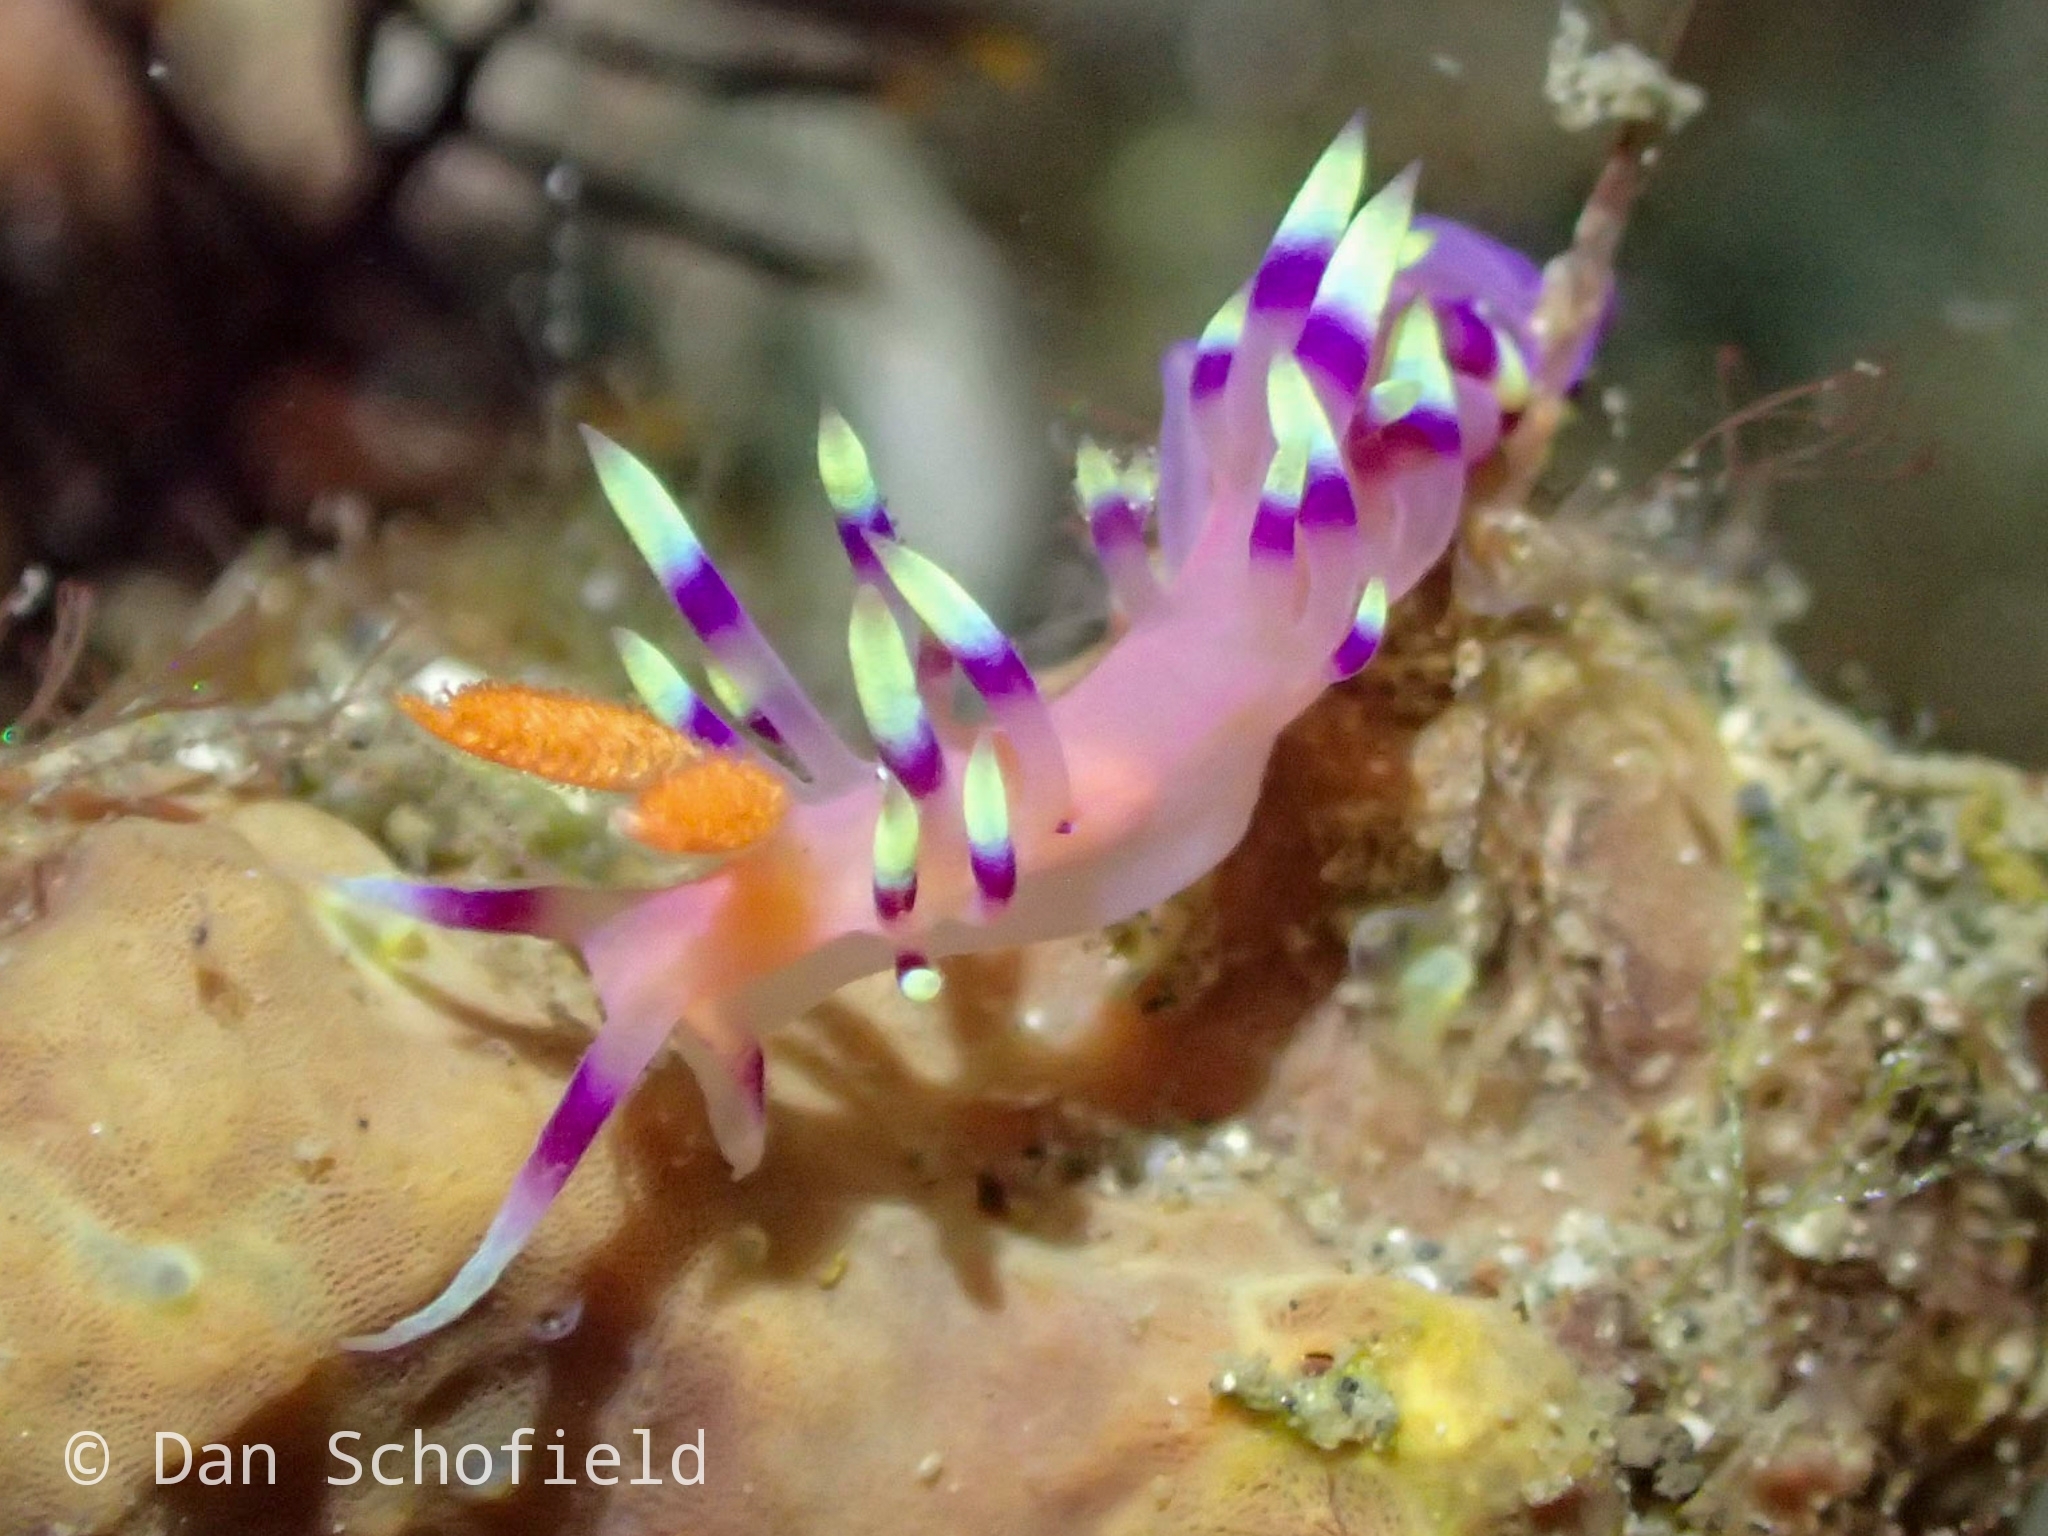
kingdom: Animalia
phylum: Mollusca
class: Gastropoda
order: Nudibranchia
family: Flabellinidae
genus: Coryphellina
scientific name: Coryphellina exoptata
